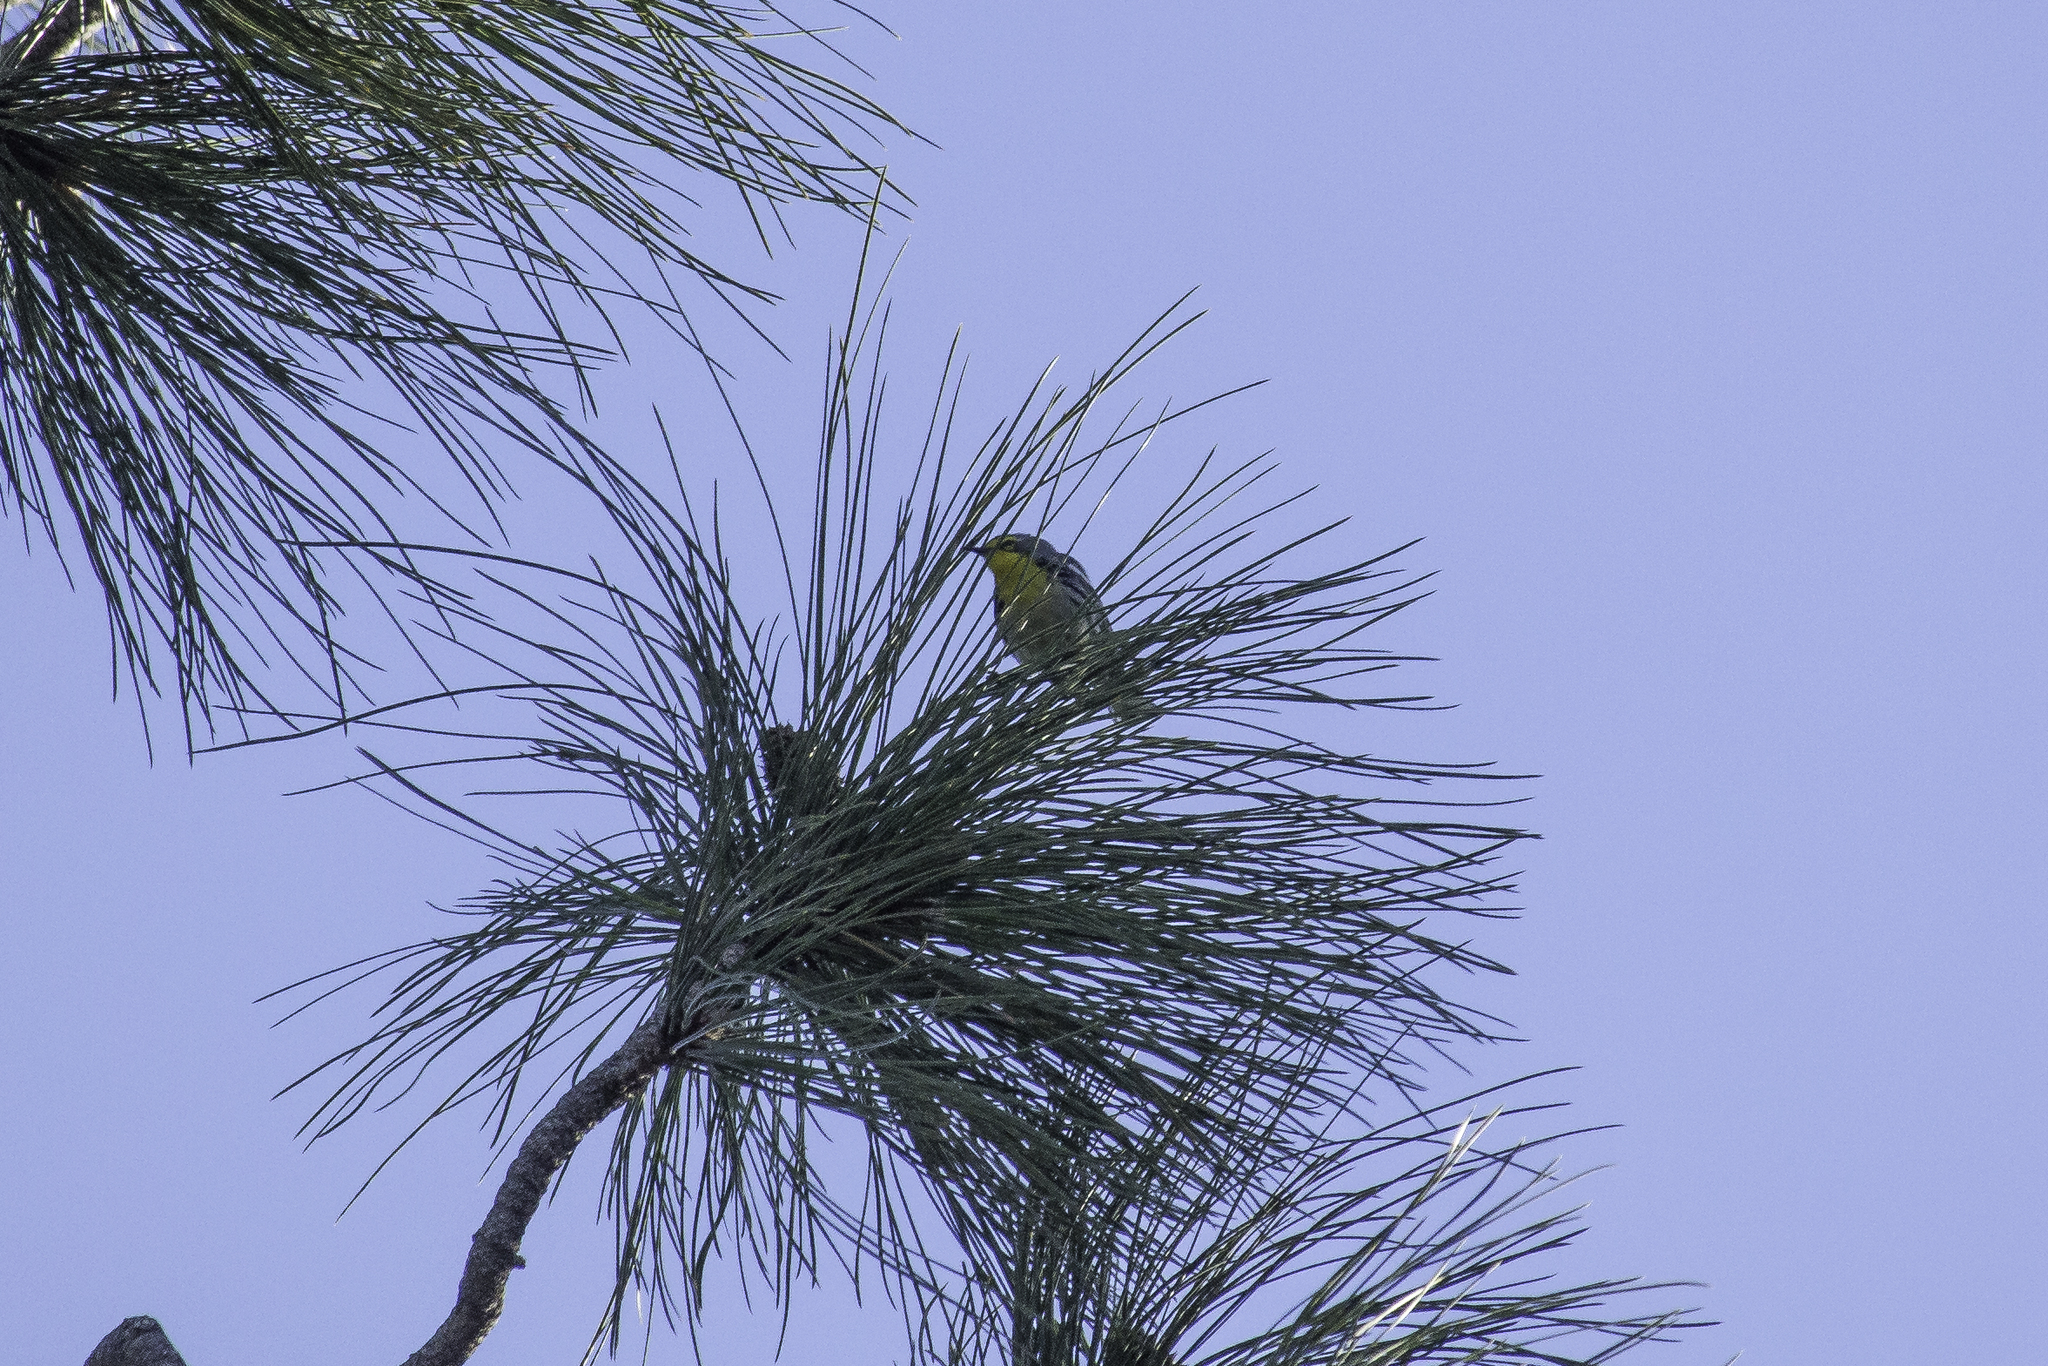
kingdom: Animalia
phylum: Chordata
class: Aves
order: Passeriformes
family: Parulidae
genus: Setophaga
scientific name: Setophaga graciae
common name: Grace's warbler
